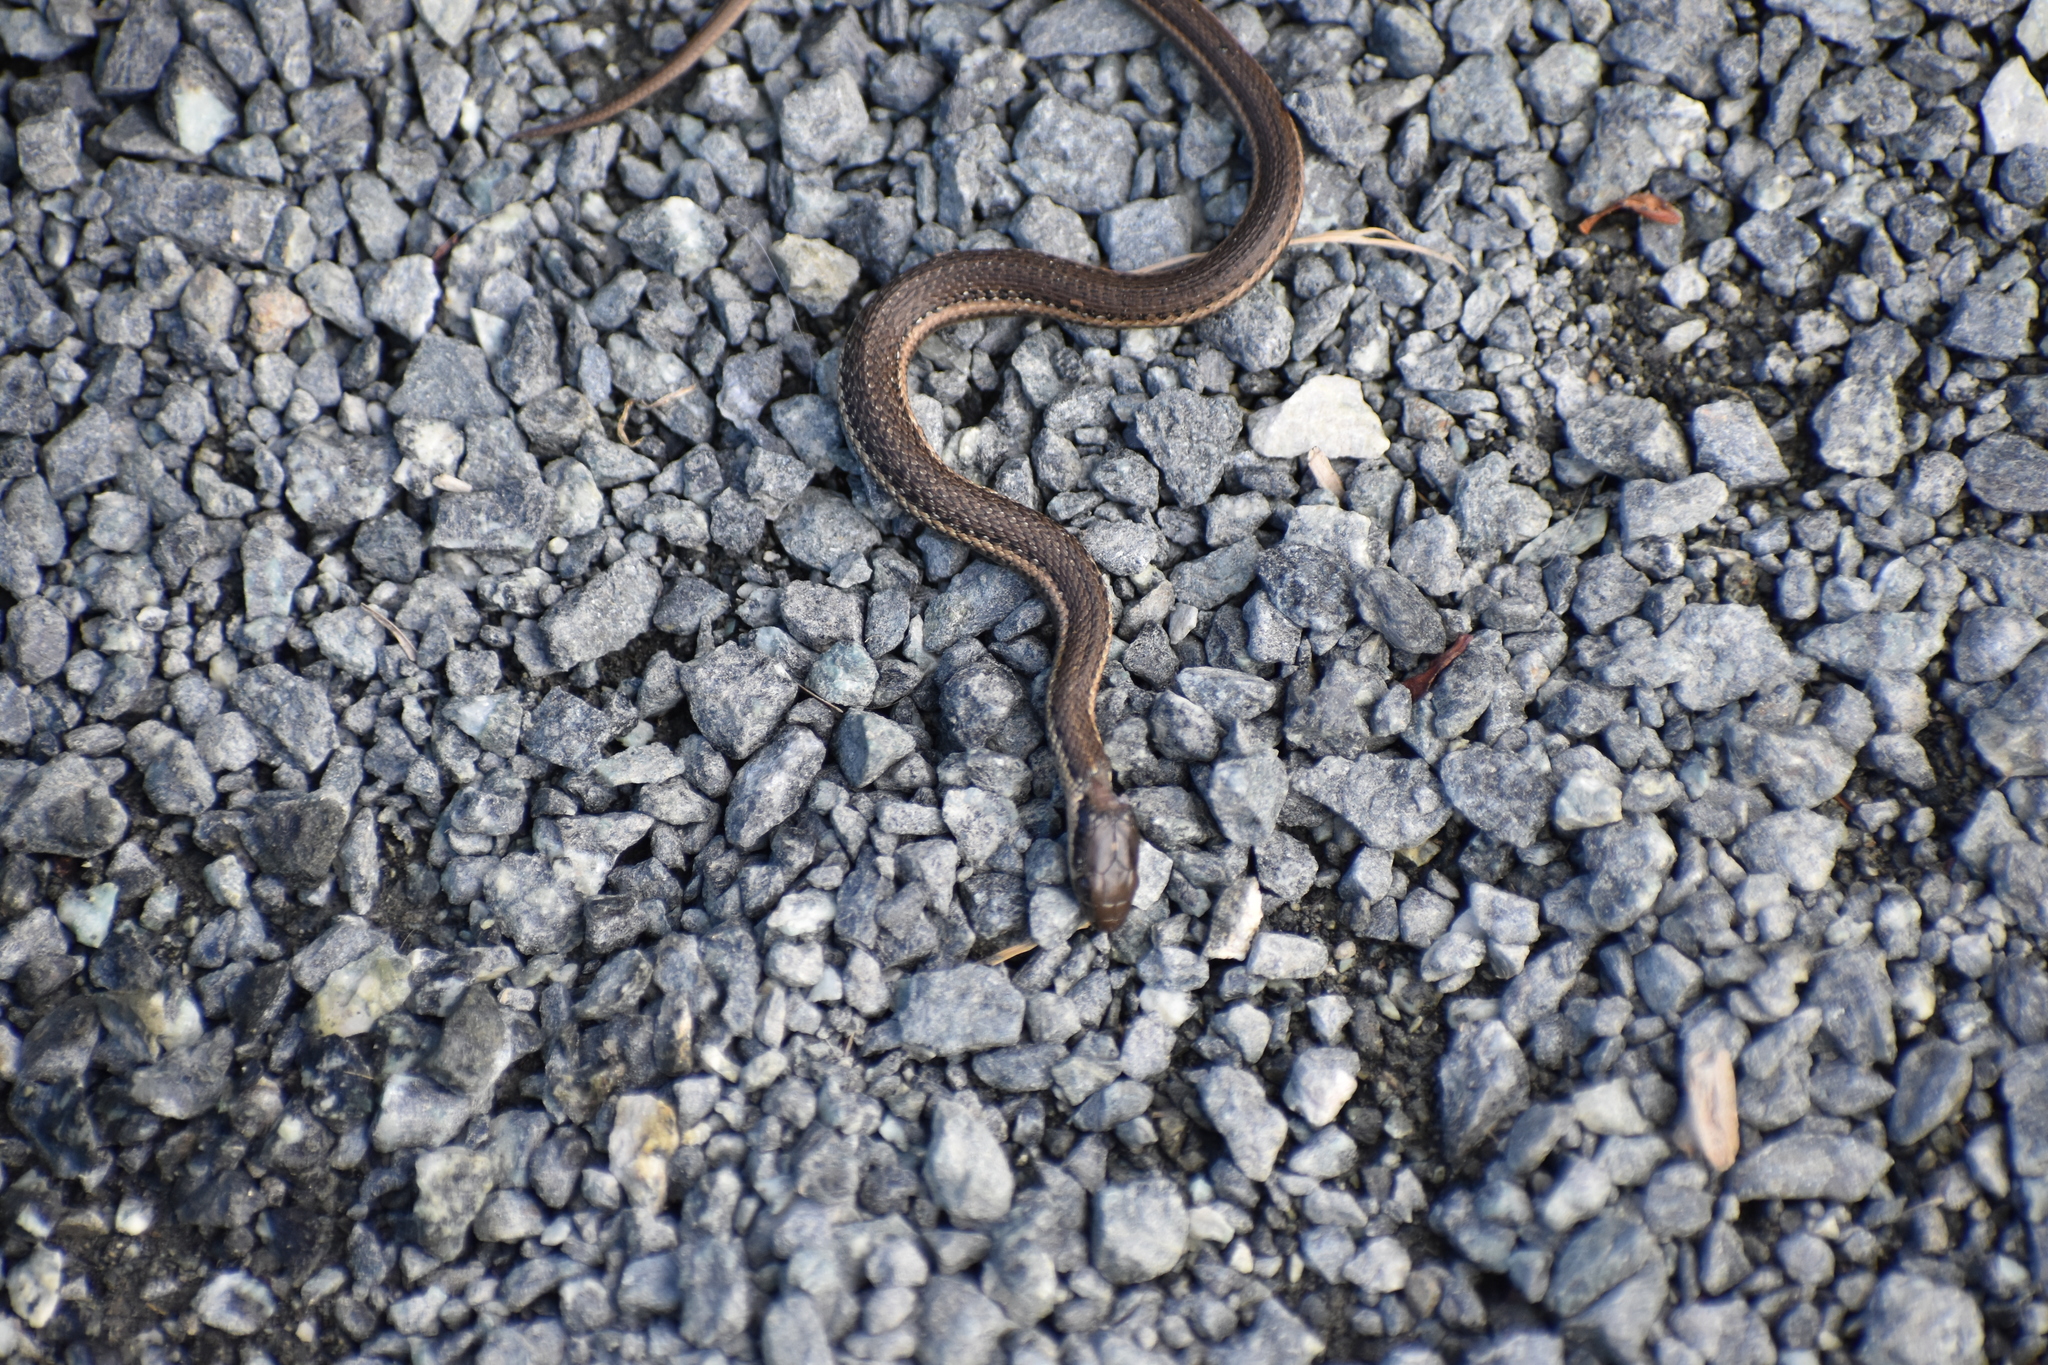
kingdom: Animalia
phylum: Chordata
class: Squamata
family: Colubridae
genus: Thamnophis
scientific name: Thamnophis ordinoides
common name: Northwestern garter snake
